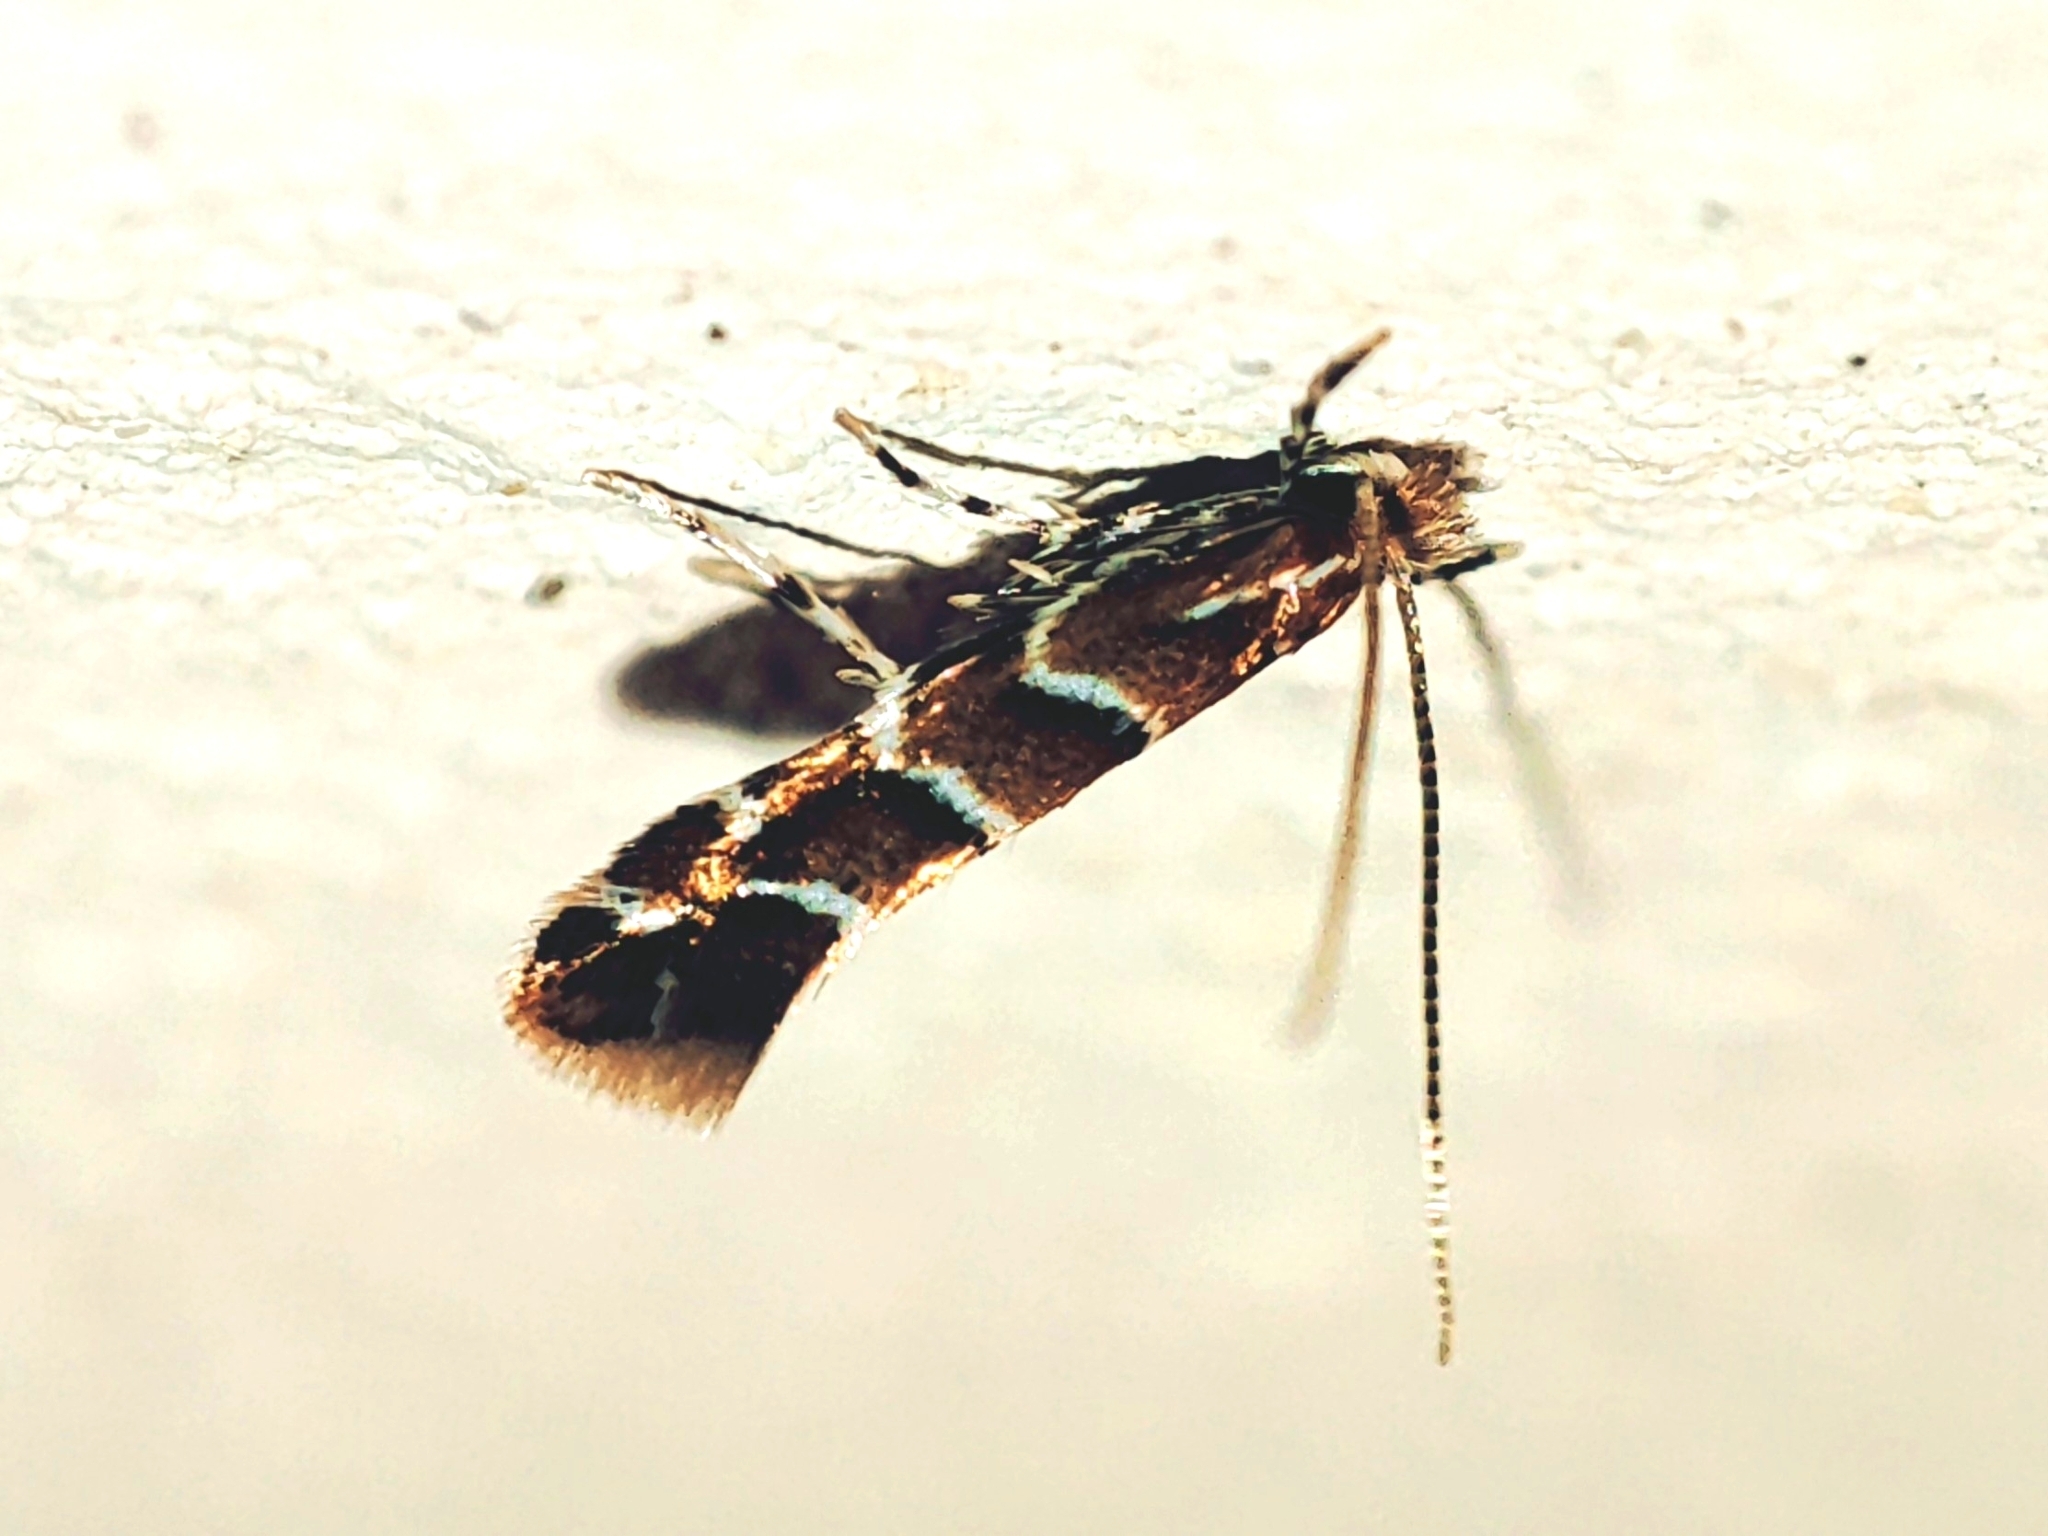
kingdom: Animalia
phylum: Arthropoda
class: Insecta
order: Lepidoptera
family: Gracillariidae
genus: Cameraria
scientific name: Cameraria ohridella
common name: Horse-chestnut leaf-miner
